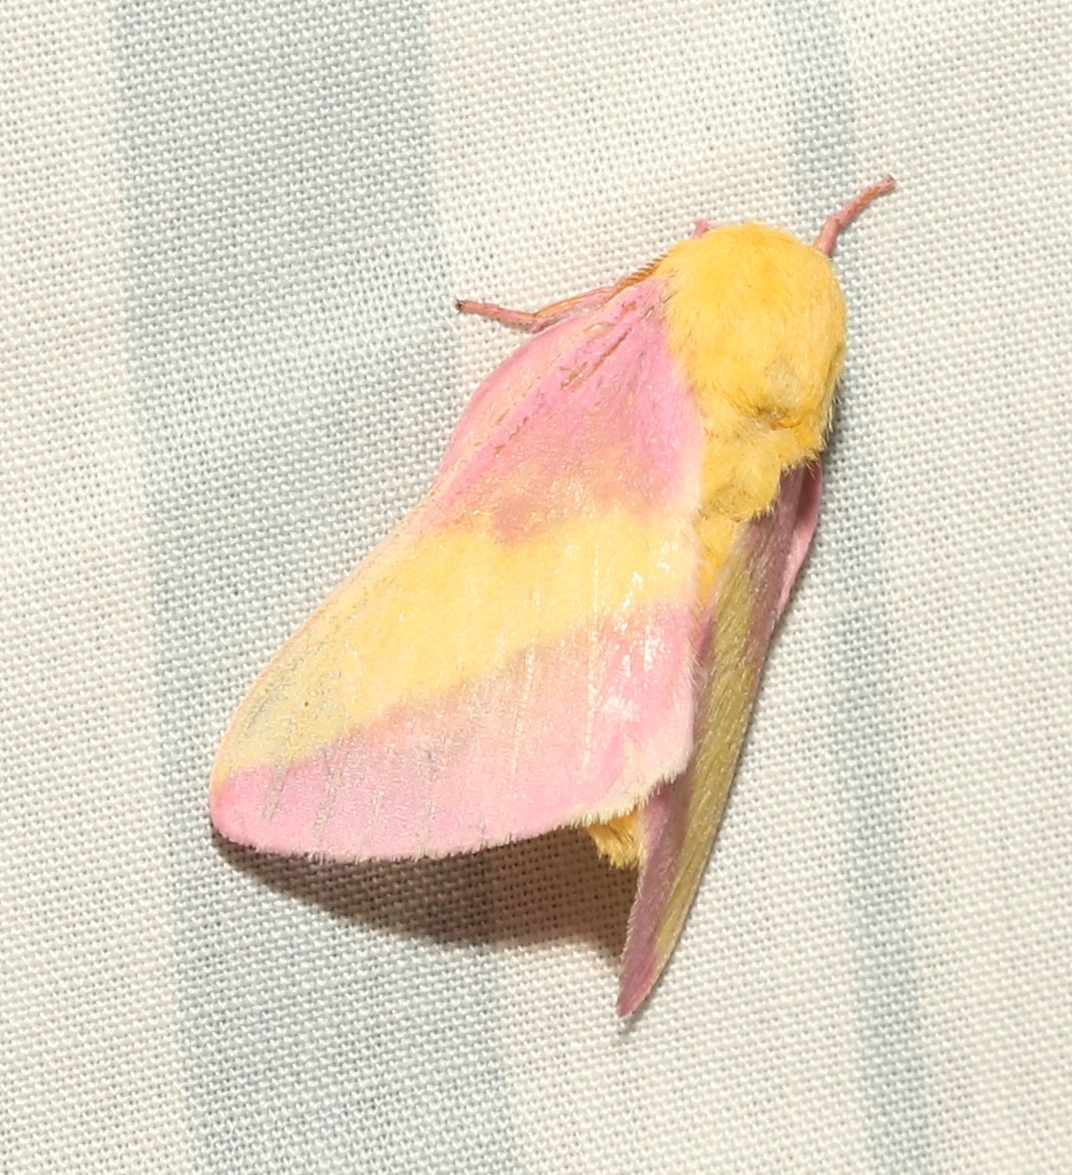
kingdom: Animalia
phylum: Arthropoda
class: Insecta
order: Lepidoptera
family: Saturniidae
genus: Dryocampa
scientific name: Dryocampa rubicunda
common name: Rosy maple moth
